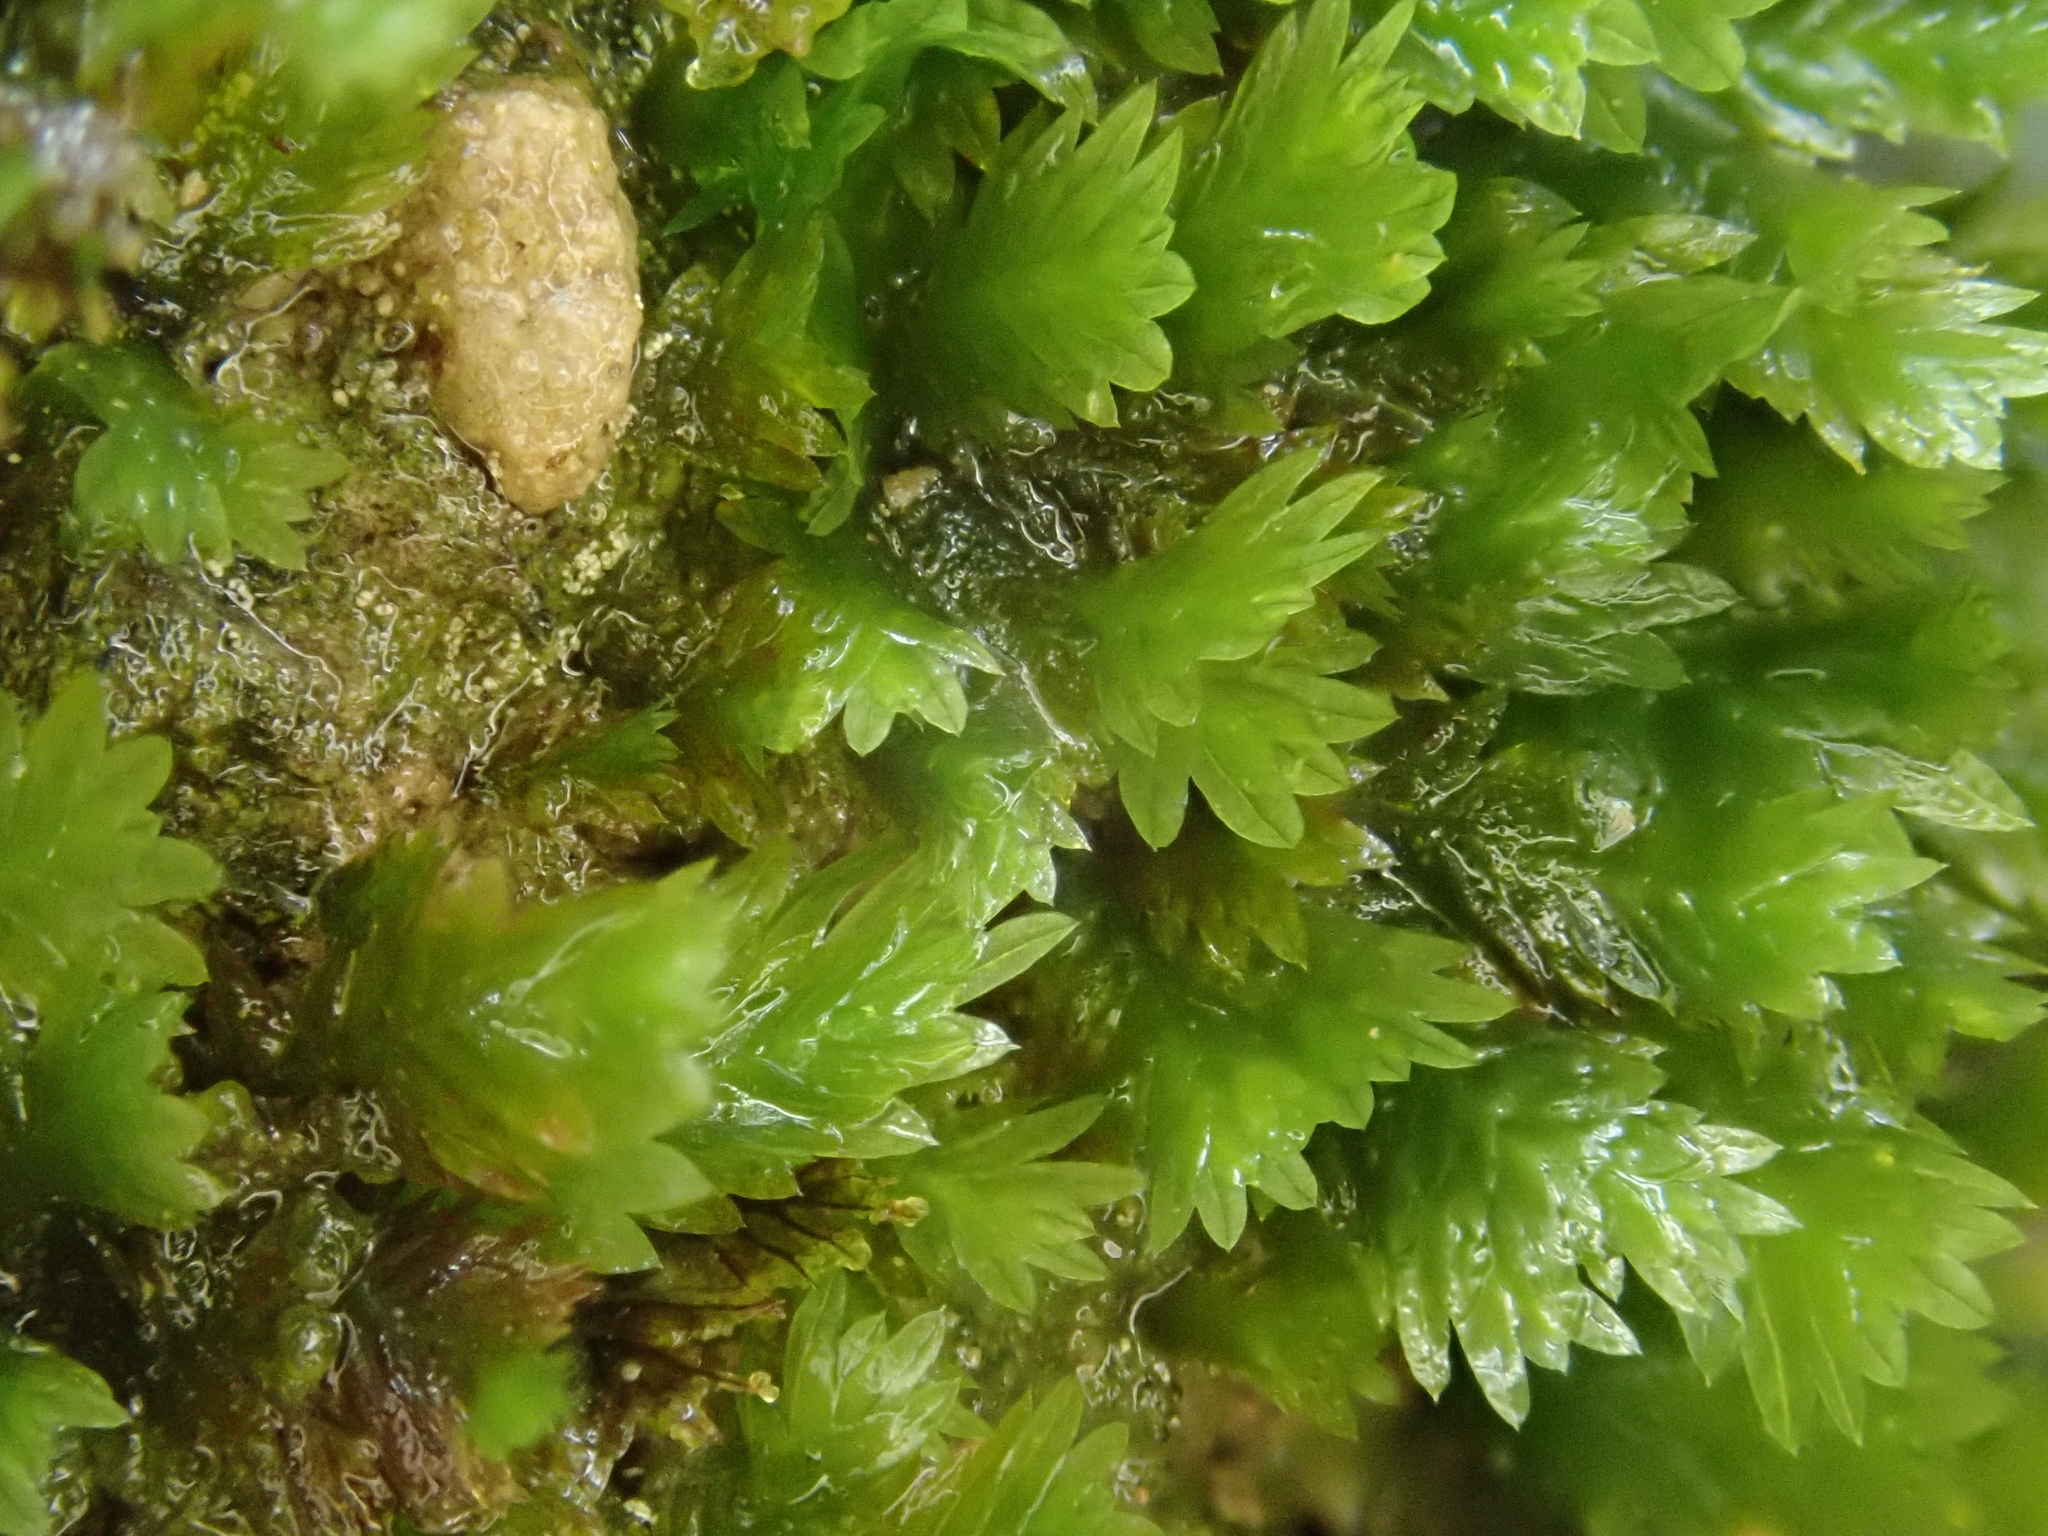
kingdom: Plantae
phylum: Bryophyta
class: Bryopsida
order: Dicranales
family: Fissidentaceae
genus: Fissidens
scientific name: Fissidens taxifolius
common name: Yew-leaved pocket moss
